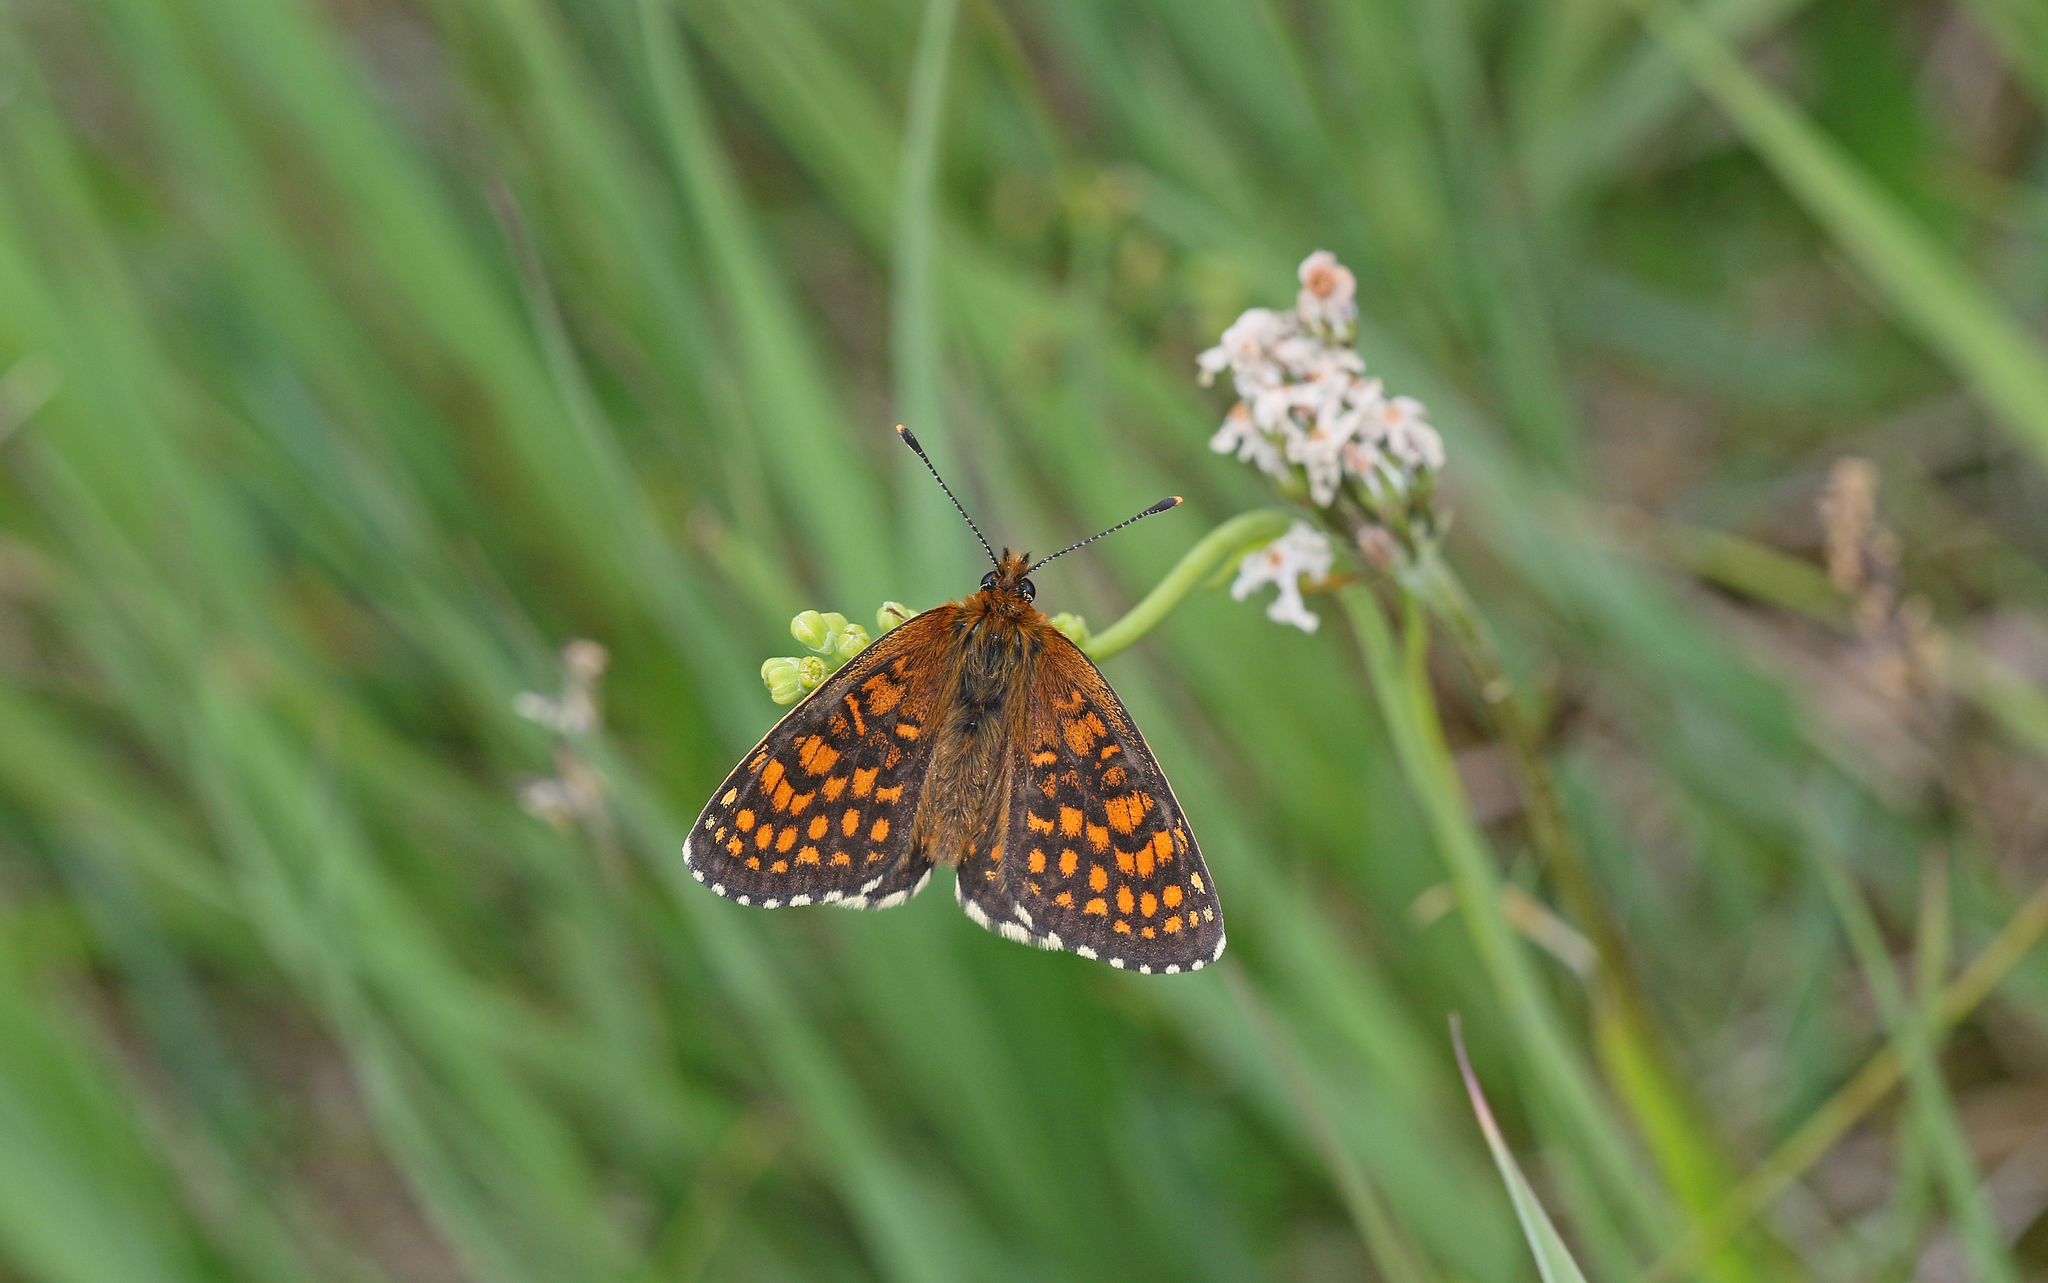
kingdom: Animalia
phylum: Arthropoda
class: Insecta
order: Lepidoptera
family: Nymphalidae
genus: Melitaea
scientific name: Melitaea athalia
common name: Heath fritillary
